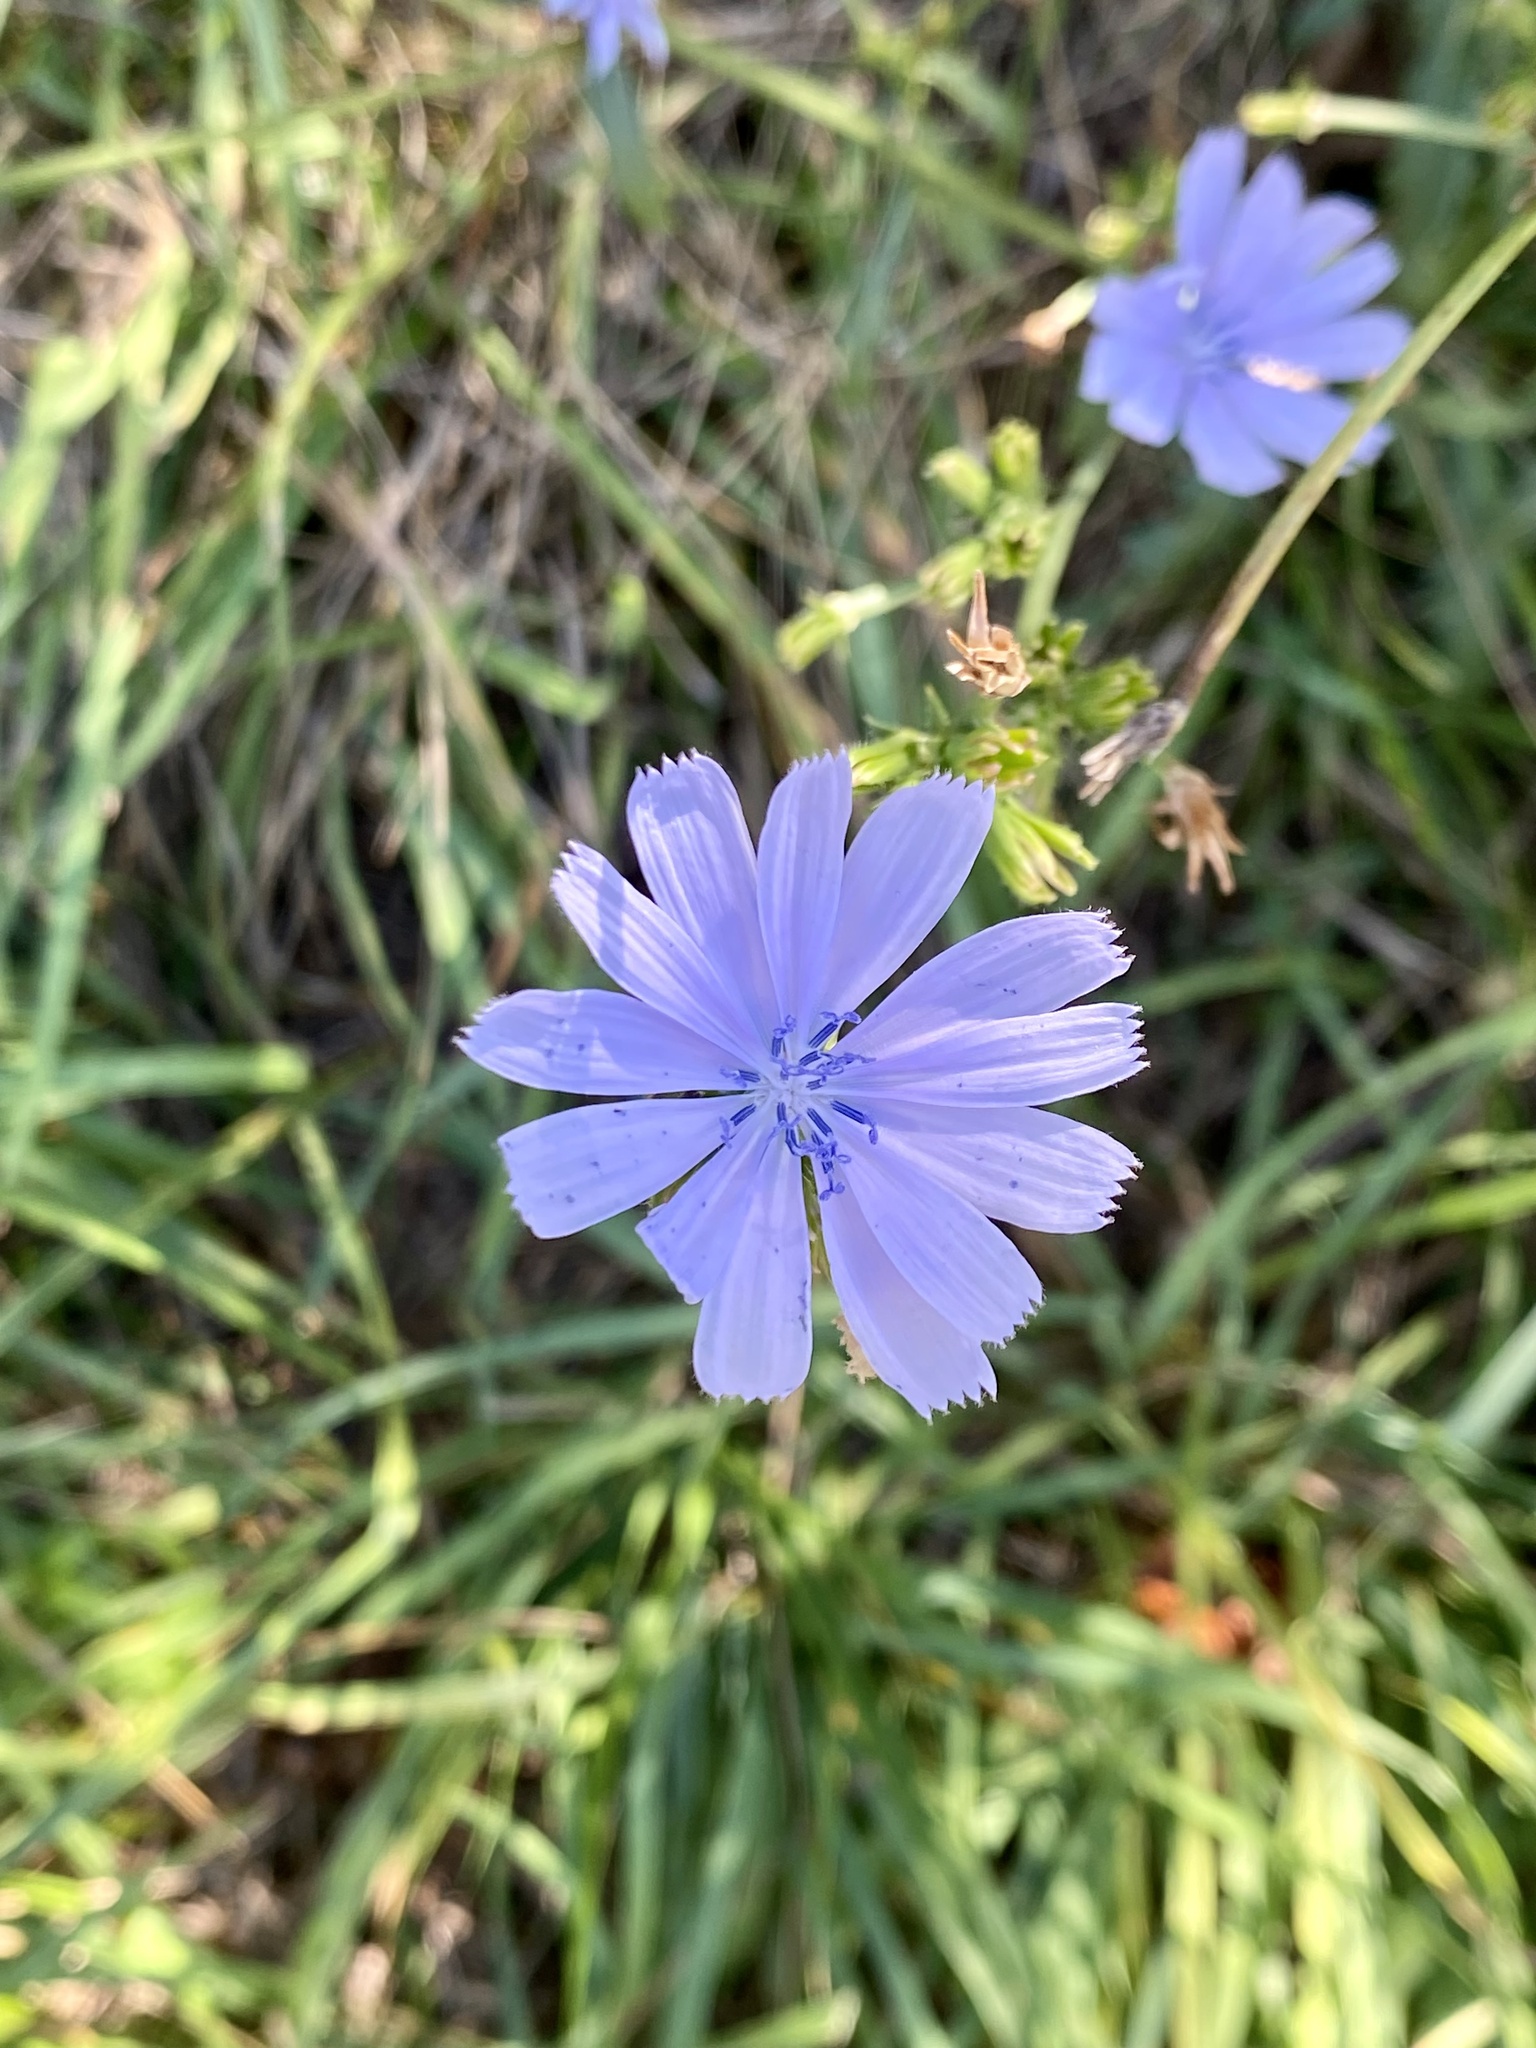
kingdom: Plantae
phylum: Tracheophyta
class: Magnoliopsida
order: Asterales
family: Asteraceae
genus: Cichorium
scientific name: Cichorium intybus
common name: Chicory
